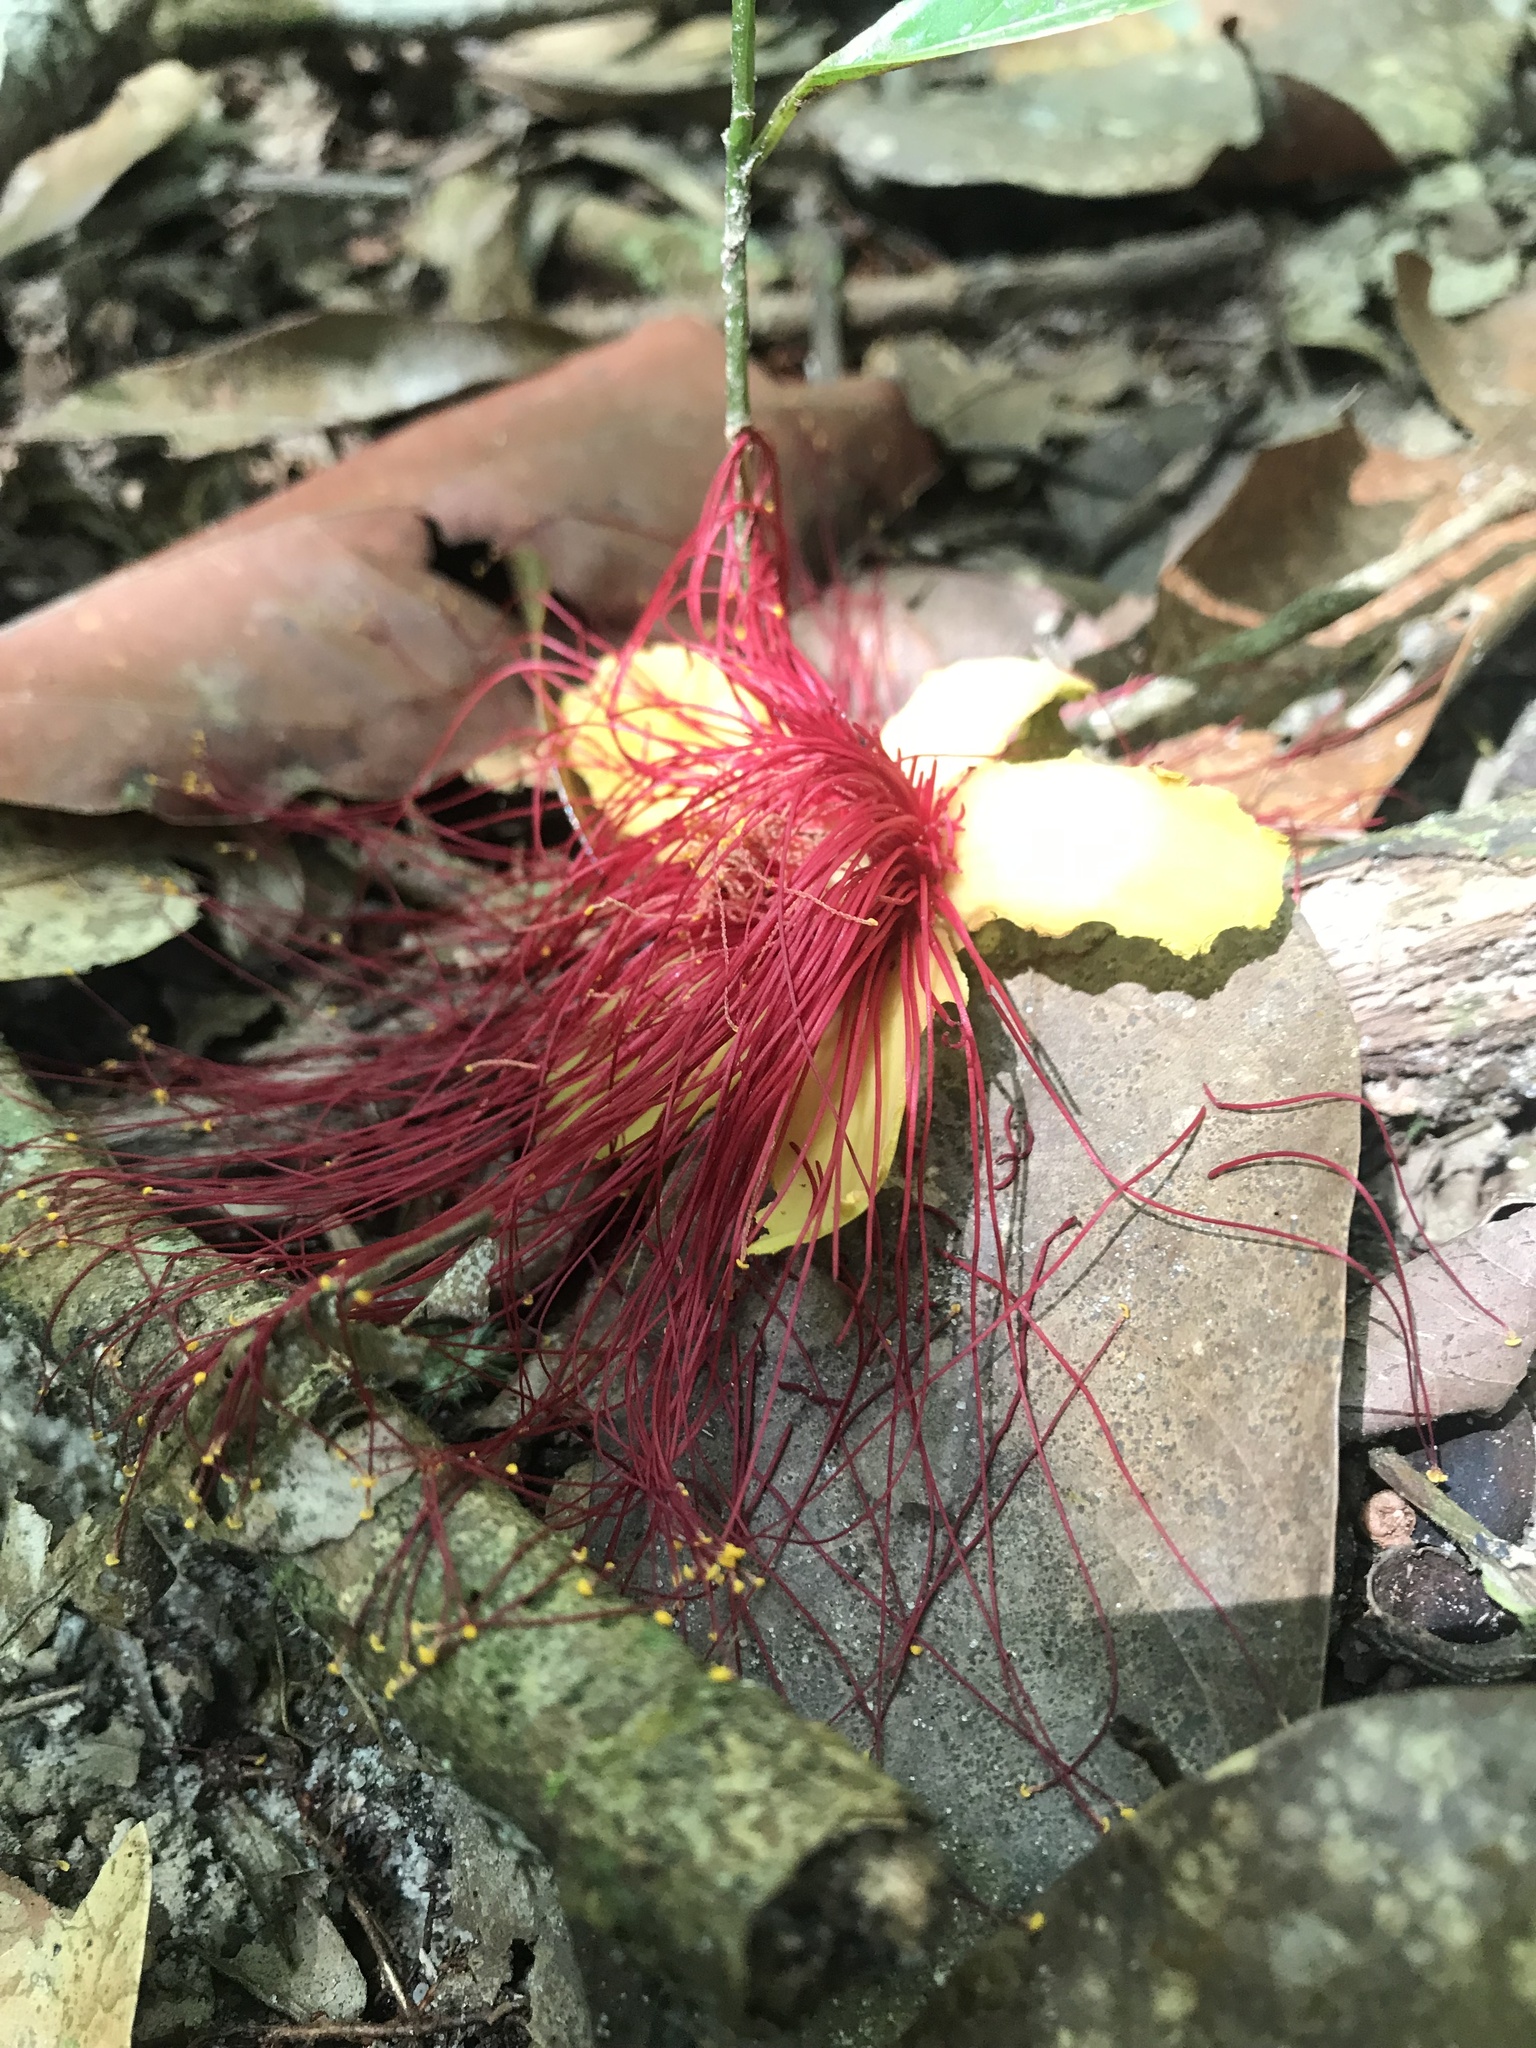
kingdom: Plantae
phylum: Tracheophyta
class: Magnoliopsida
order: Malpighiales
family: Caryocaraceae
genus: Caryocar
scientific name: Caryocar glabrum
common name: Bat's souari
